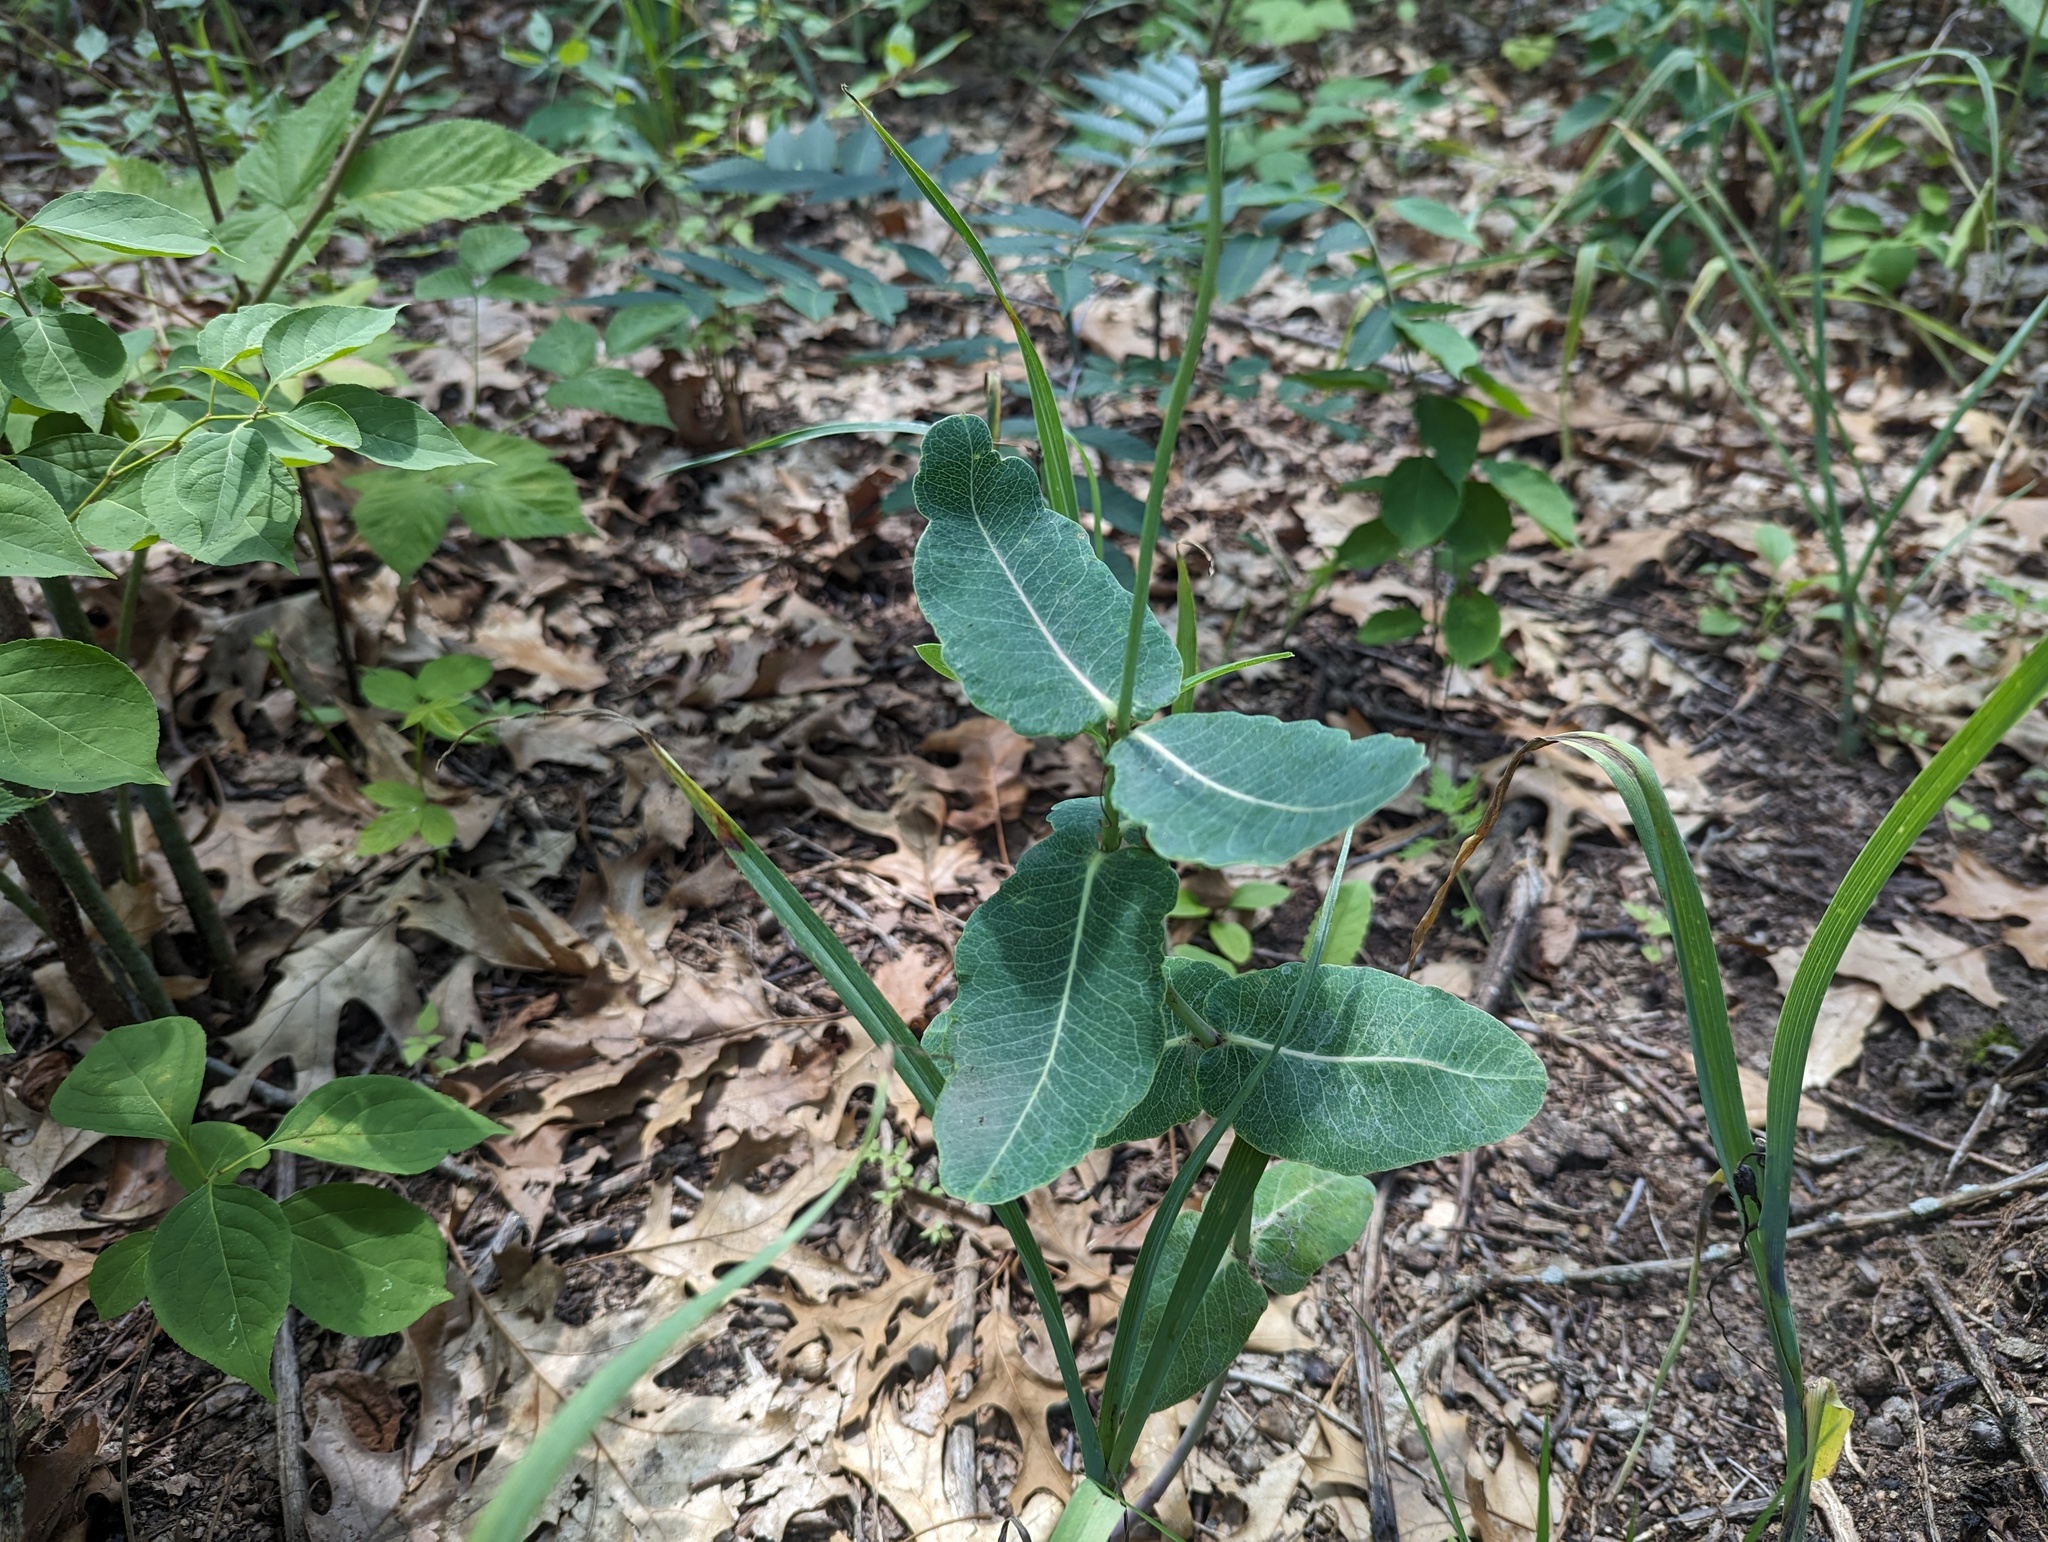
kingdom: Plantae
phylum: Tracheophyta
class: Magnoliopsida
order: Gentianales
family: Apocynaceae
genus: Asclepias
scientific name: Asclepias amplexicaulis
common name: Blunt-leaf milkweed
